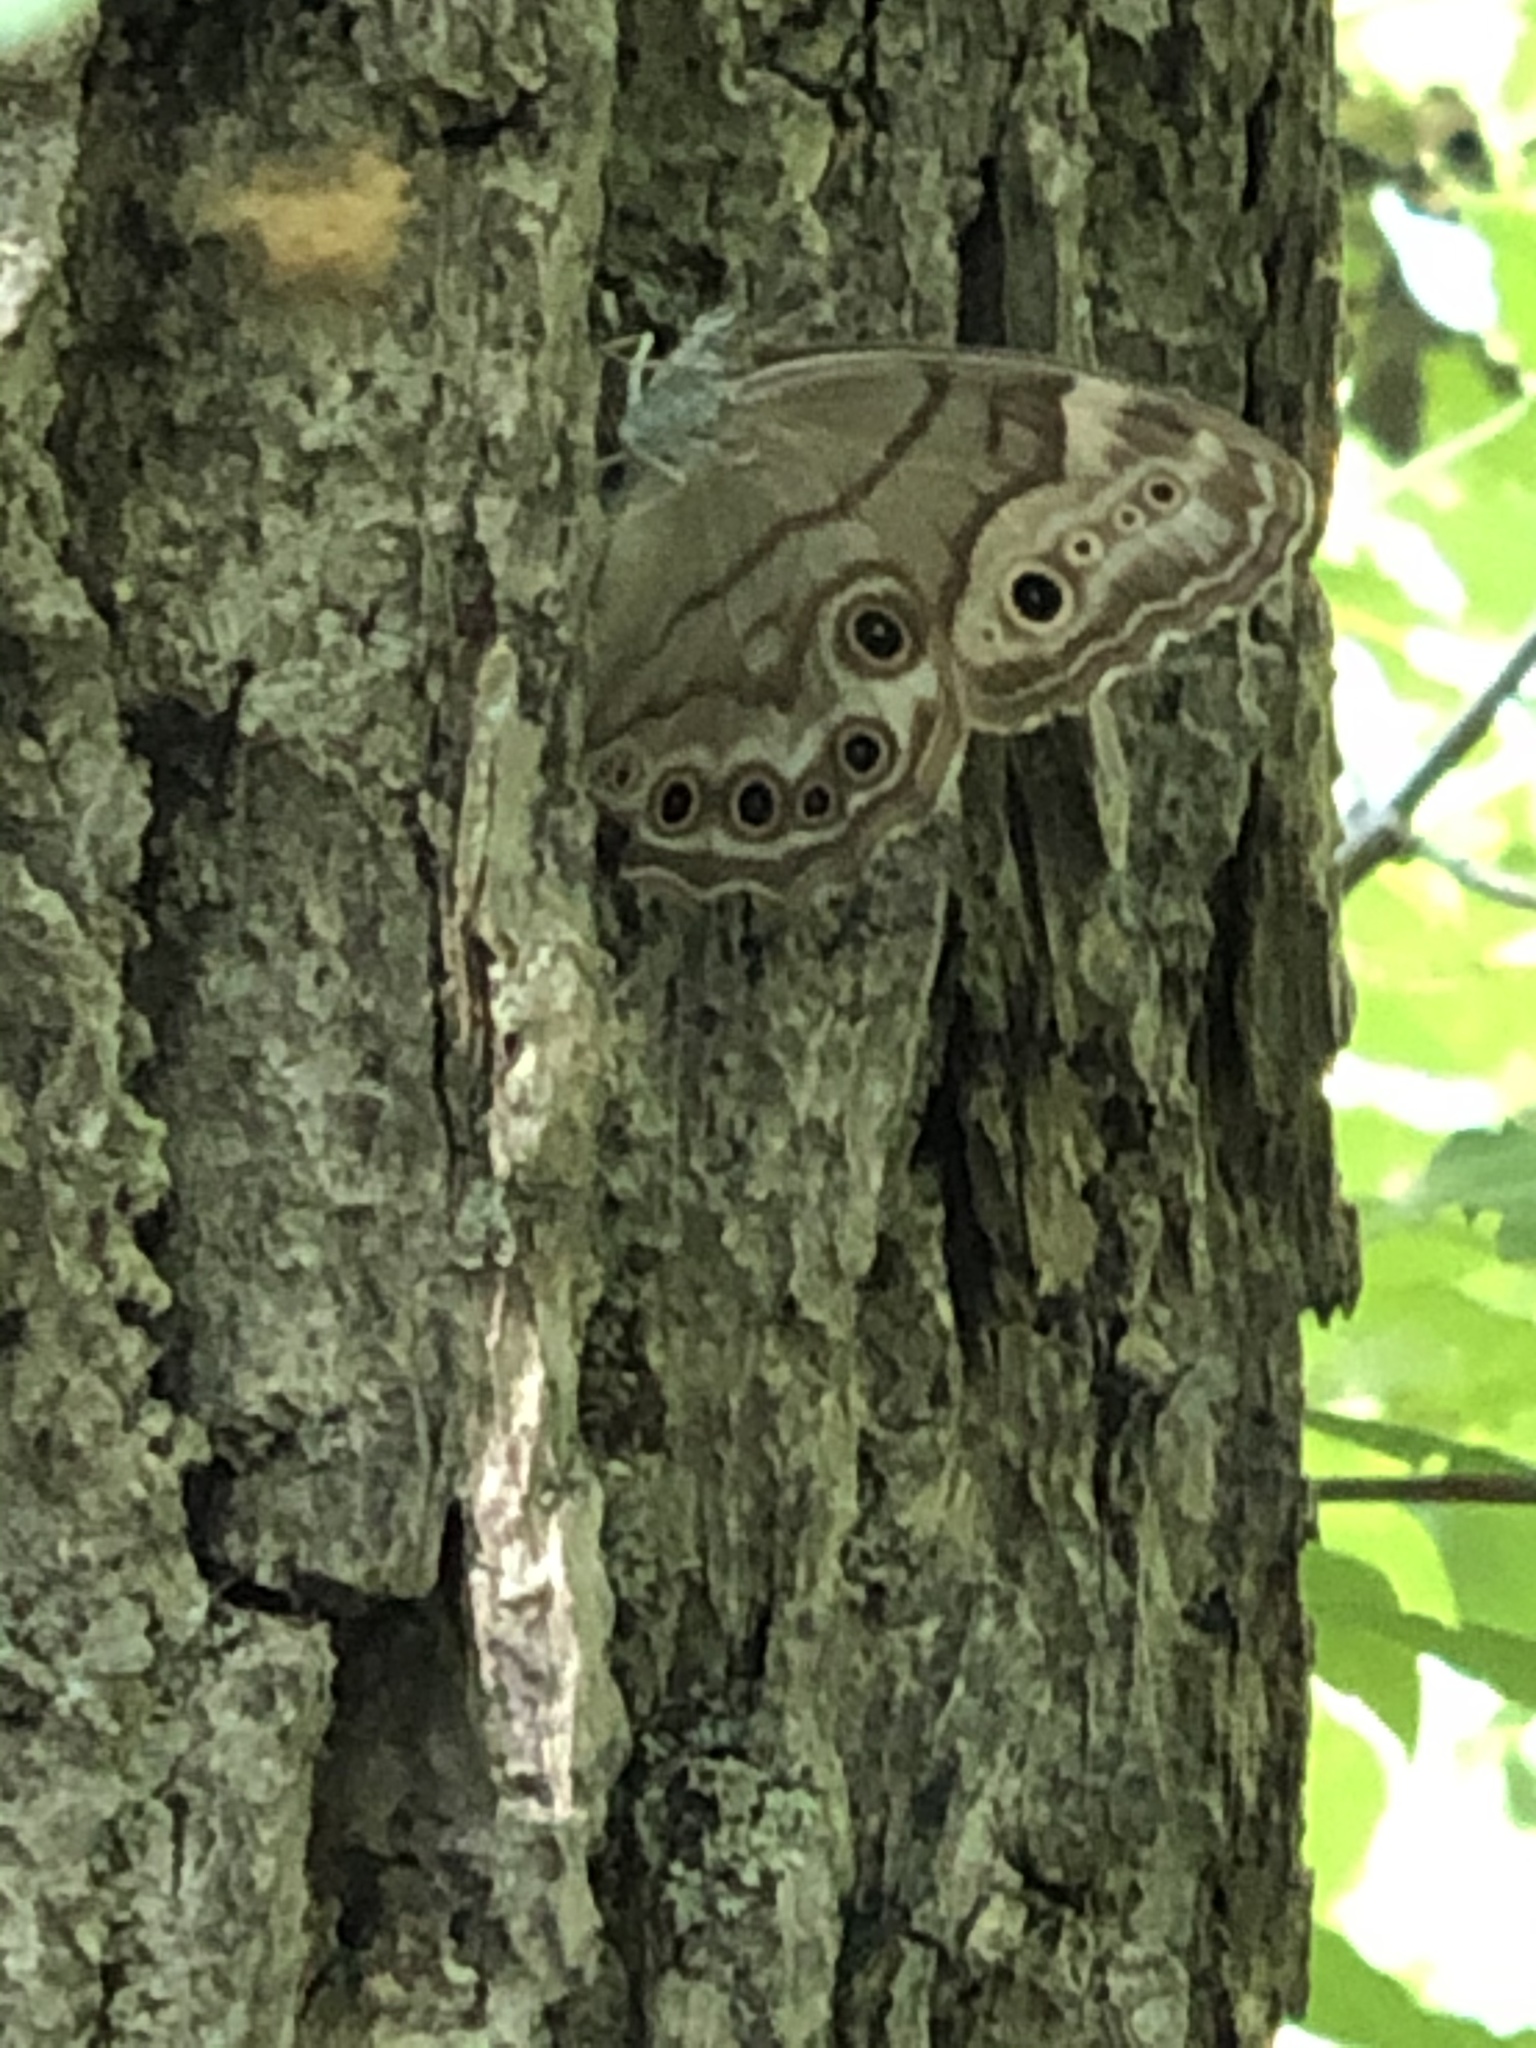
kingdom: Animalia
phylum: Arthropoda
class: Insecta
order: Lepidoptera
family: Nymphalidae
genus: Lethe
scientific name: Lethe anthedon
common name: Northern pearly-eye
